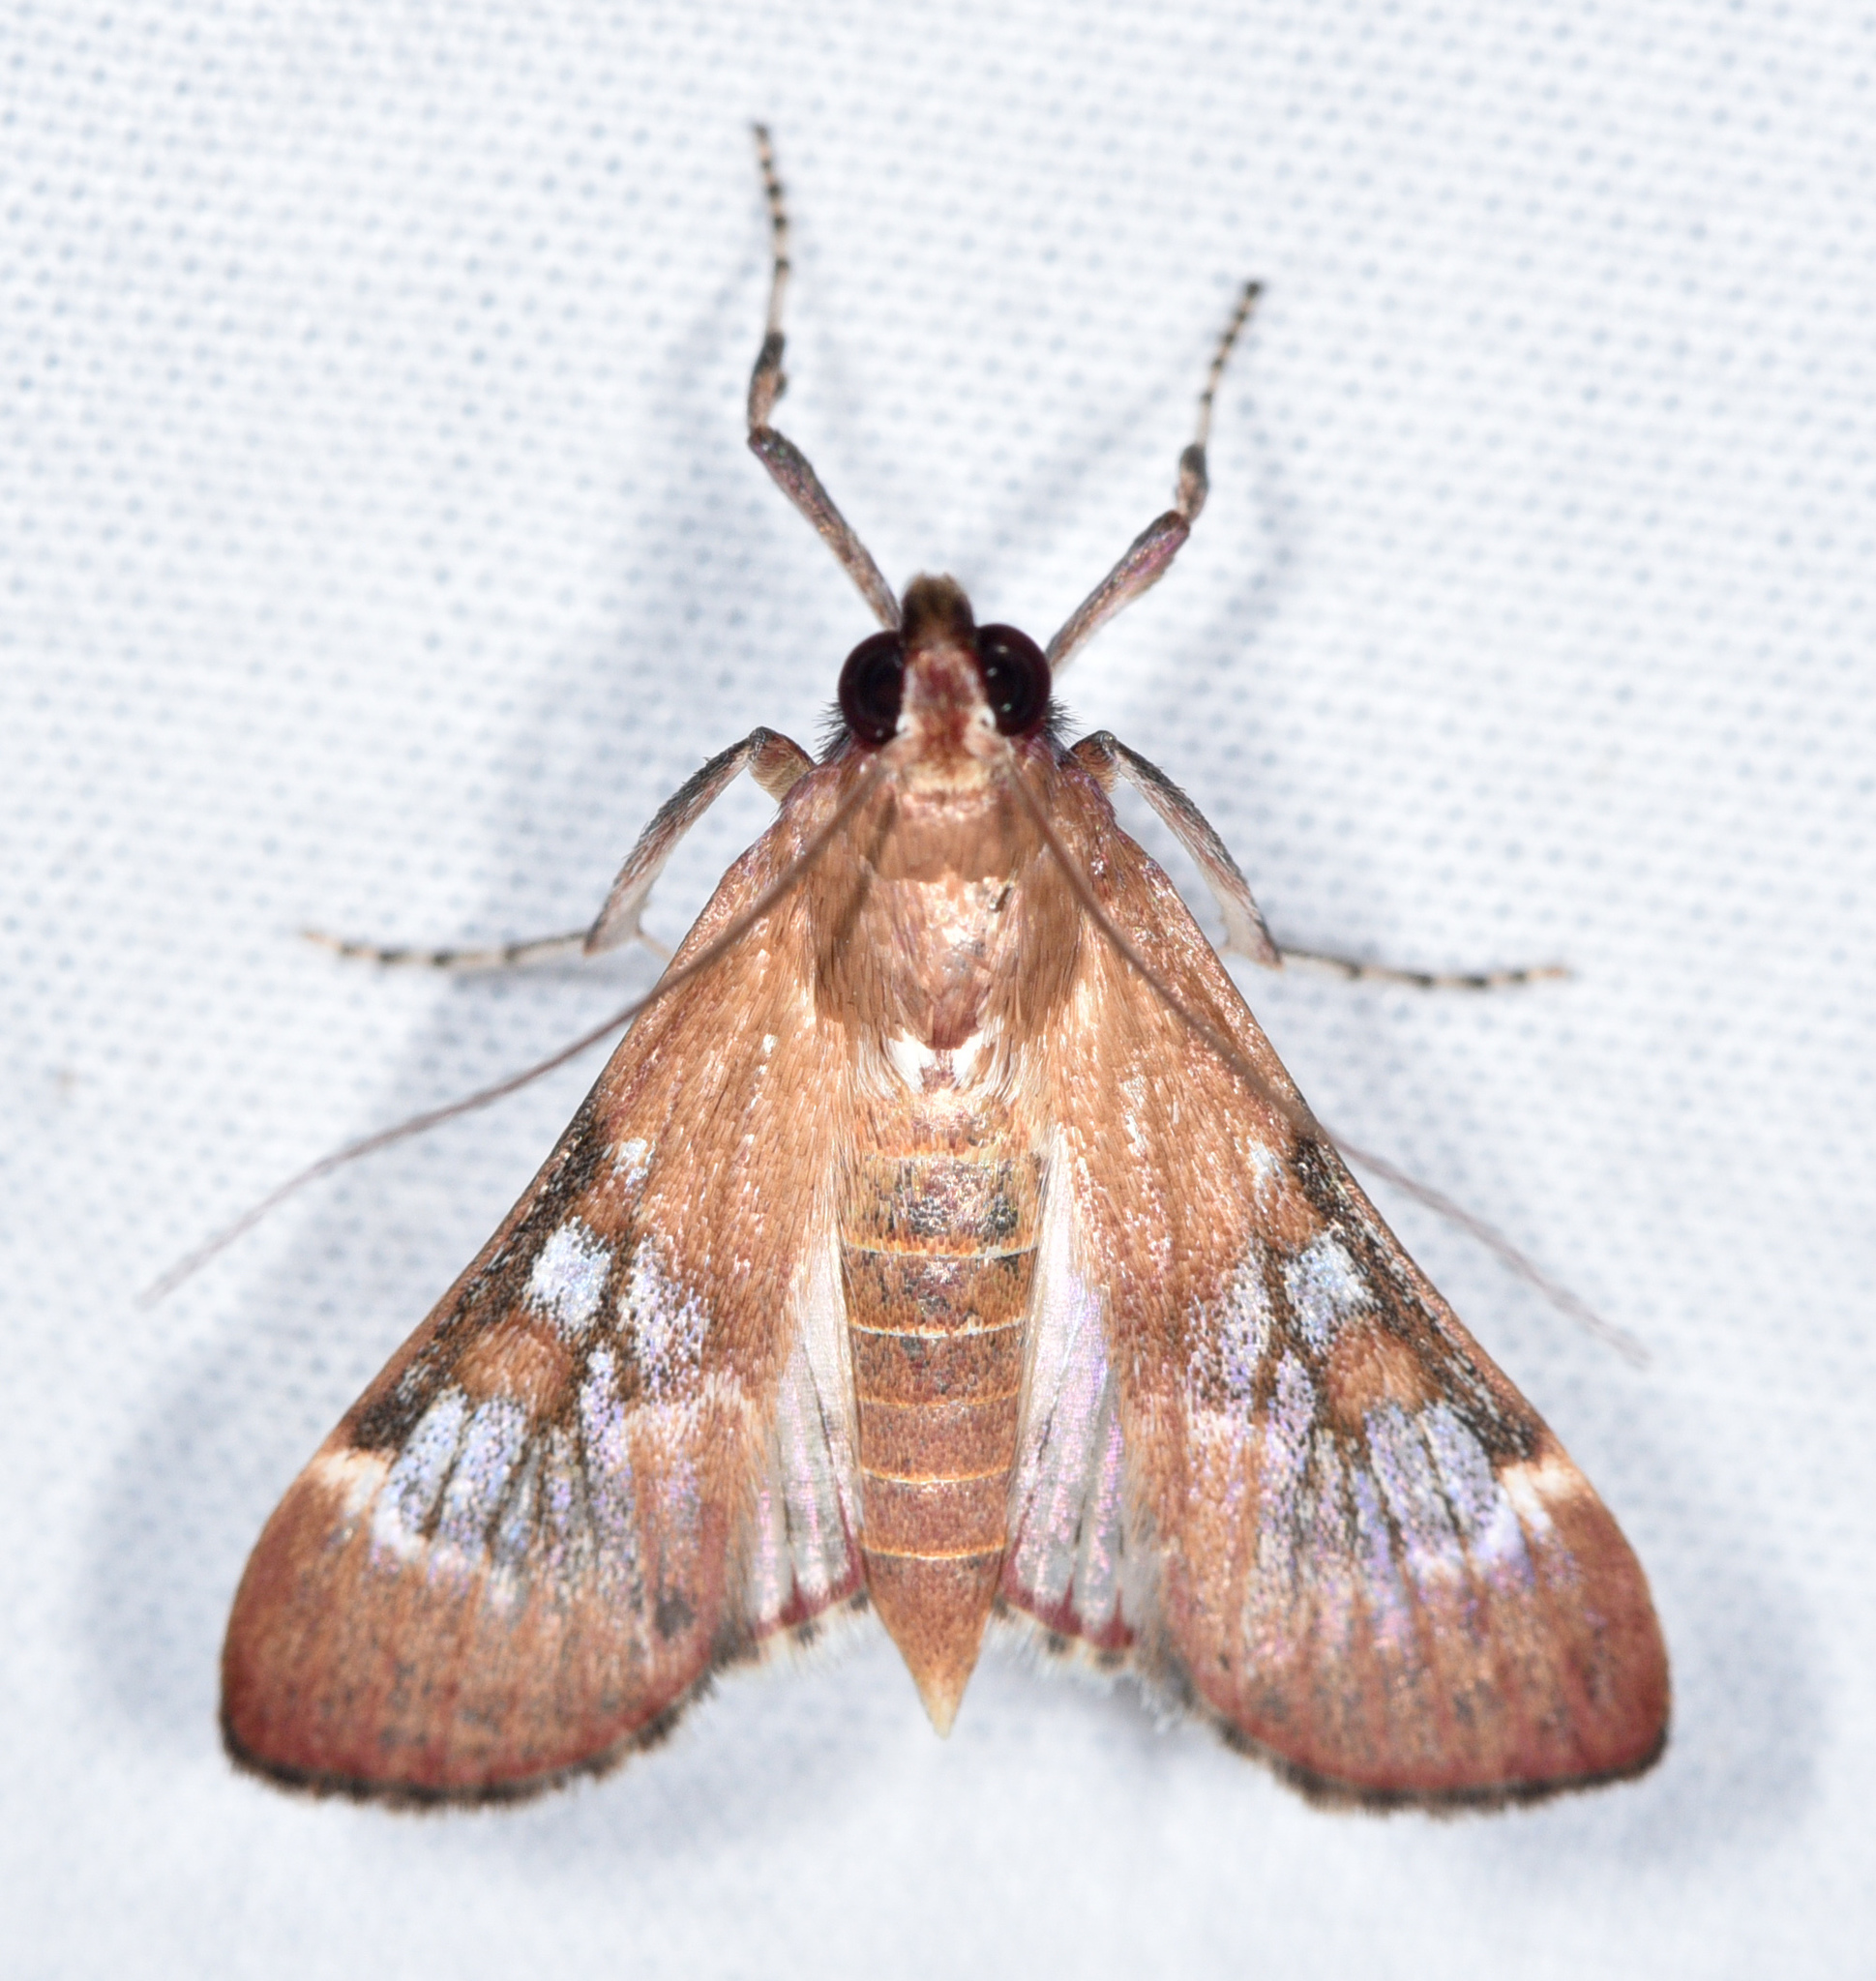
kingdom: Animalia
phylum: Arthropoda
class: Insecta
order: Lepidoptera
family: Crambidae
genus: Omiodes
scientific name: Omiodes stigmosalis
